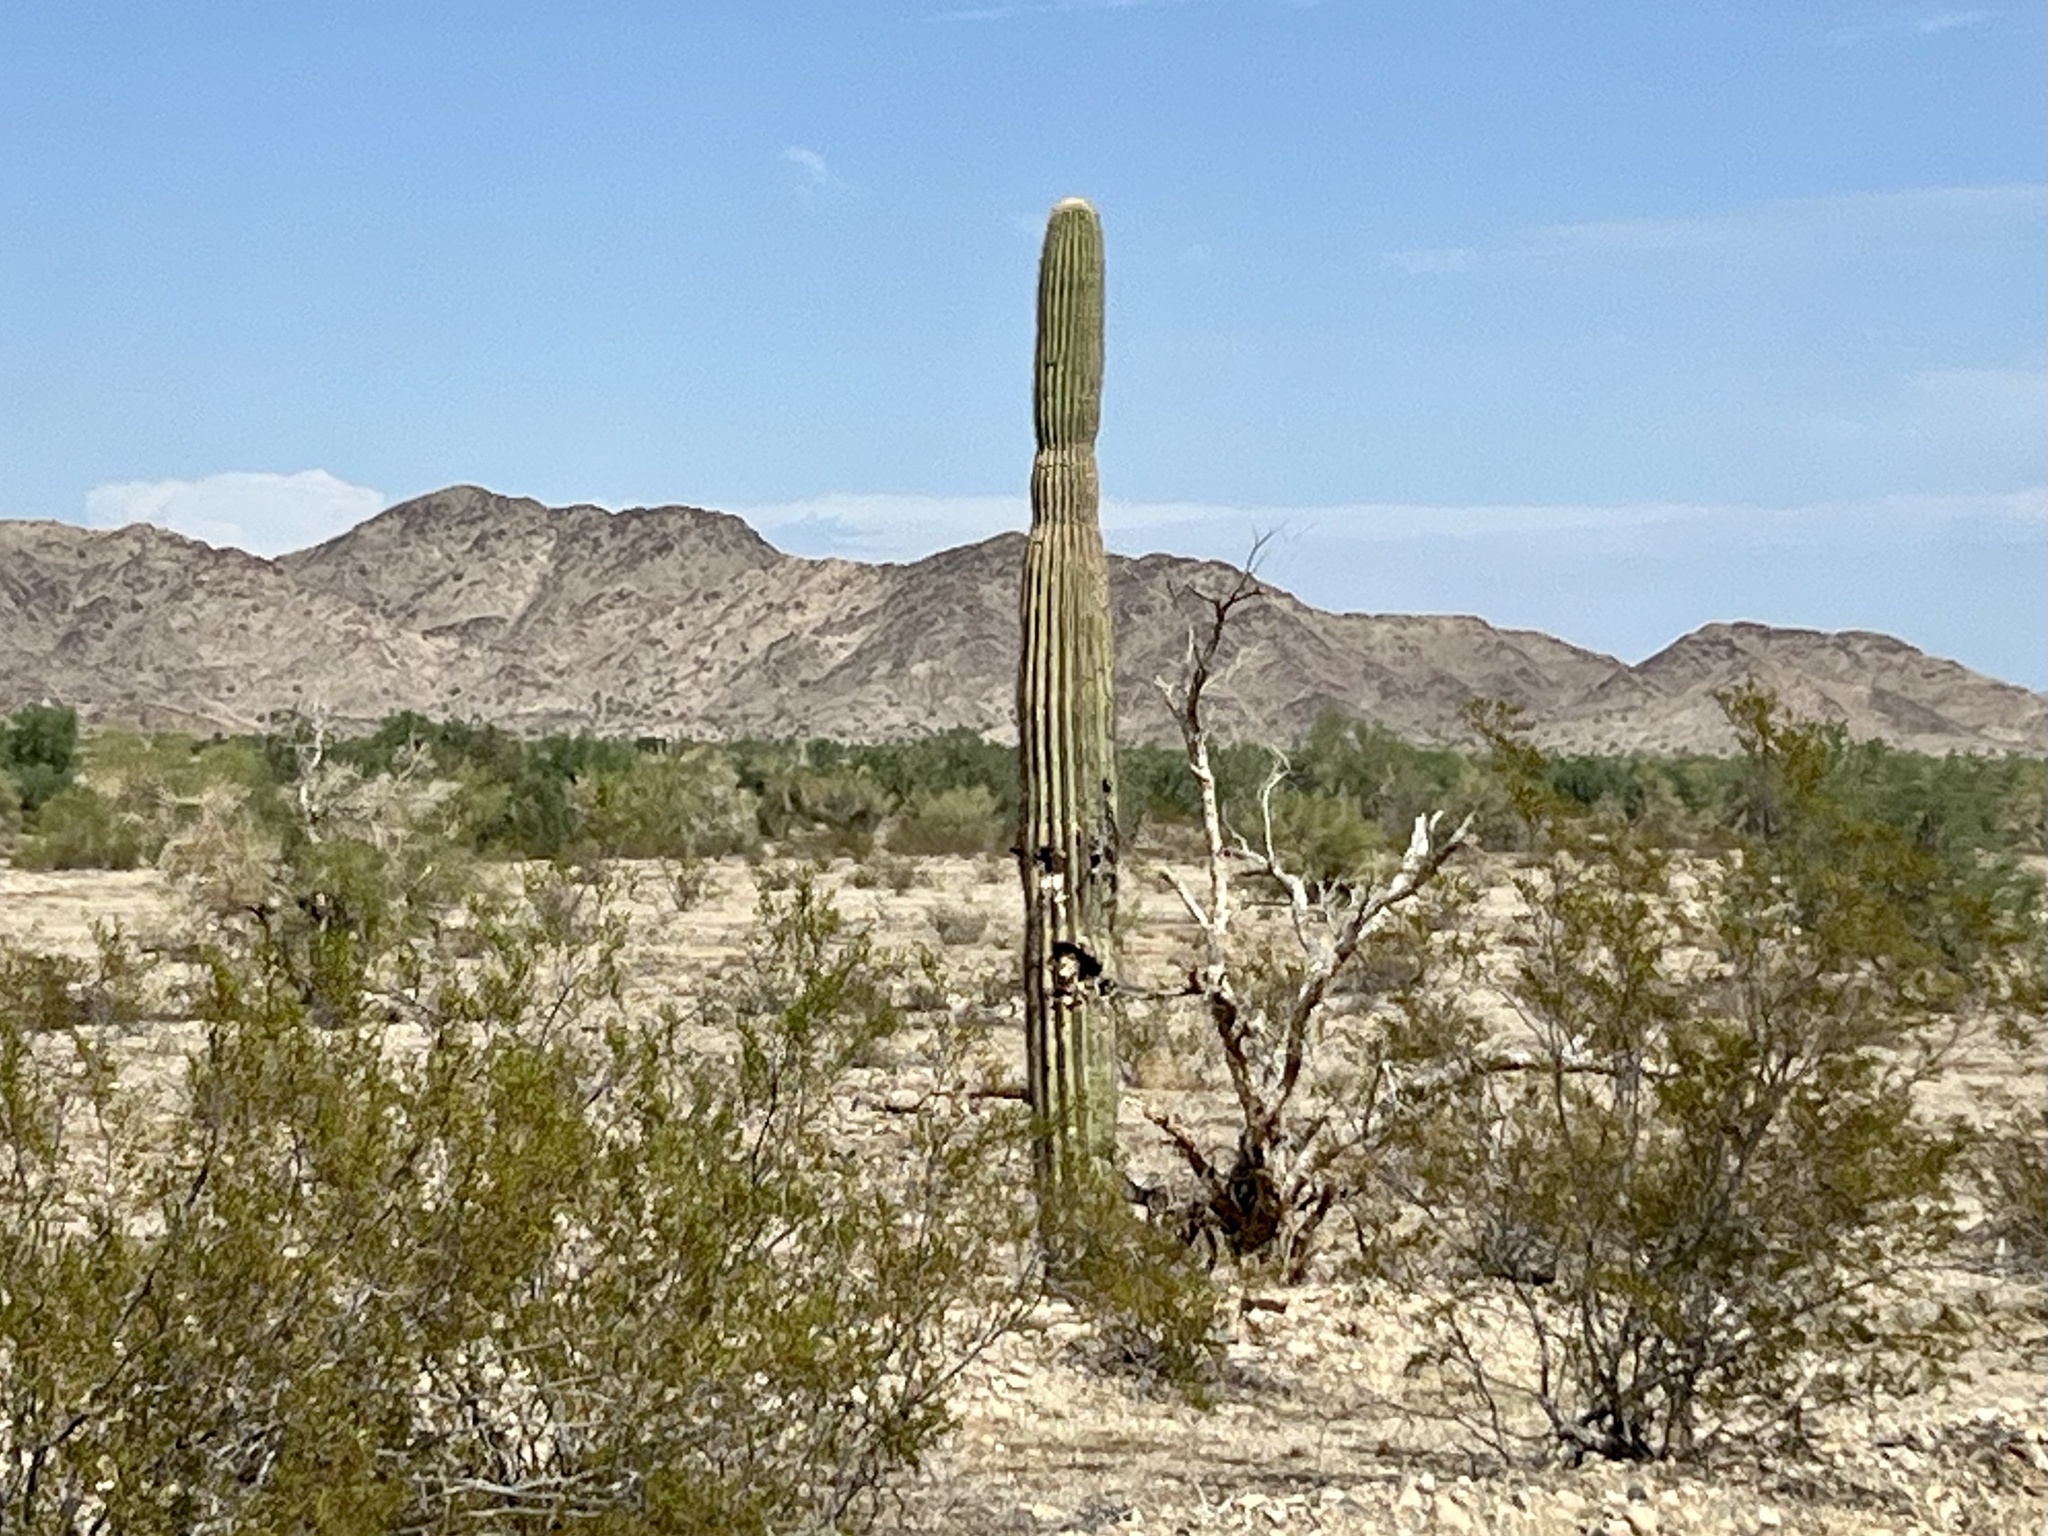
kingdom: Plantae
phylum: Tracheophyta
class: Magnoliopsida
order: Caryophyllales
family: Cactaceae
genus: Carnegiea
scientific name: Carnegiea gigantea
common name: Saguaro
